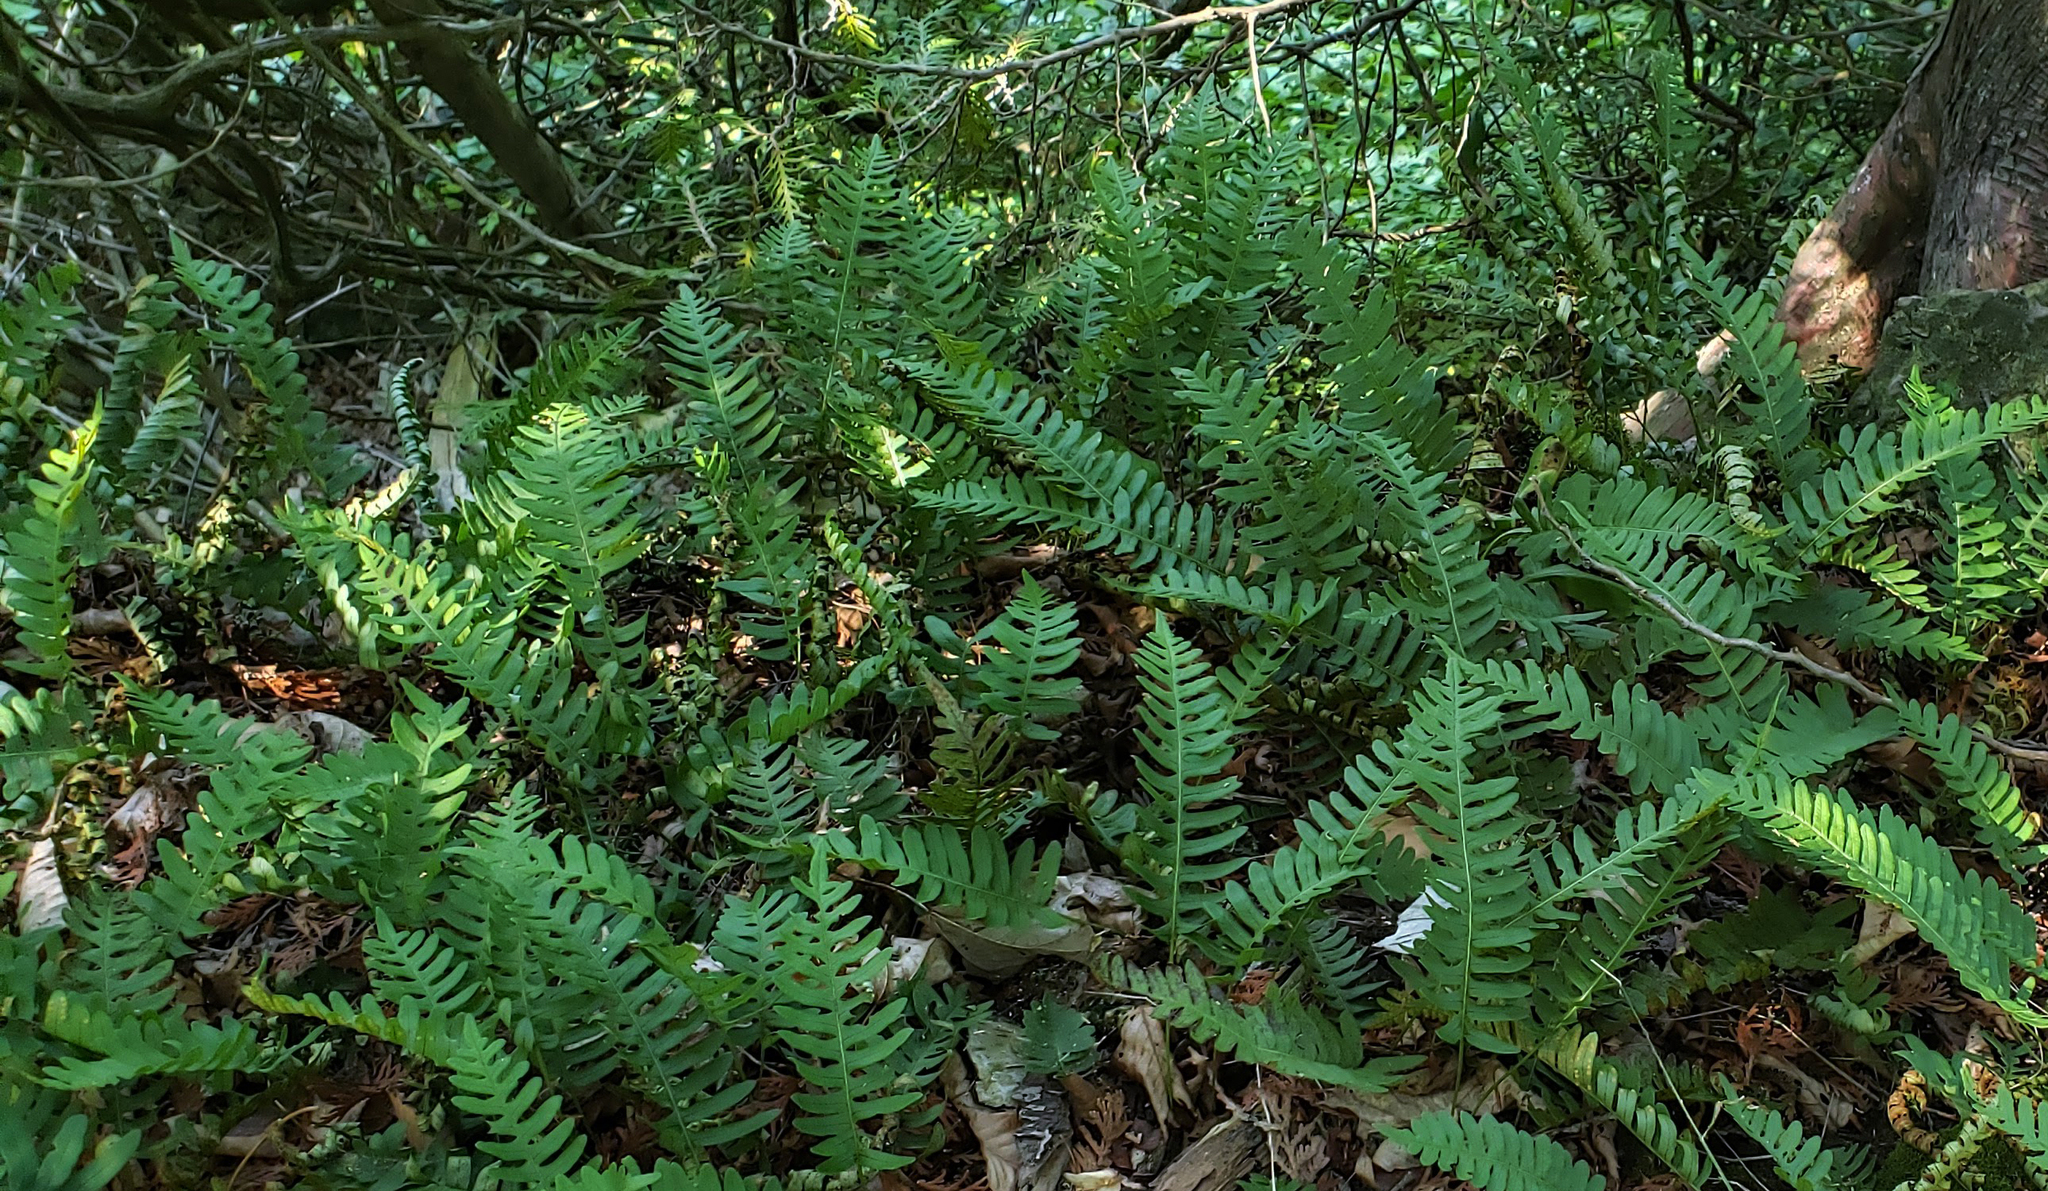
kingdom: Plantae
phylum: Tracheophyta
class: Polypodiopsida
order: Polypodiales
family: Polypodiaceae
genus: Polypodium
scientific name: Polypodium virginianum
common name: American wall fern
